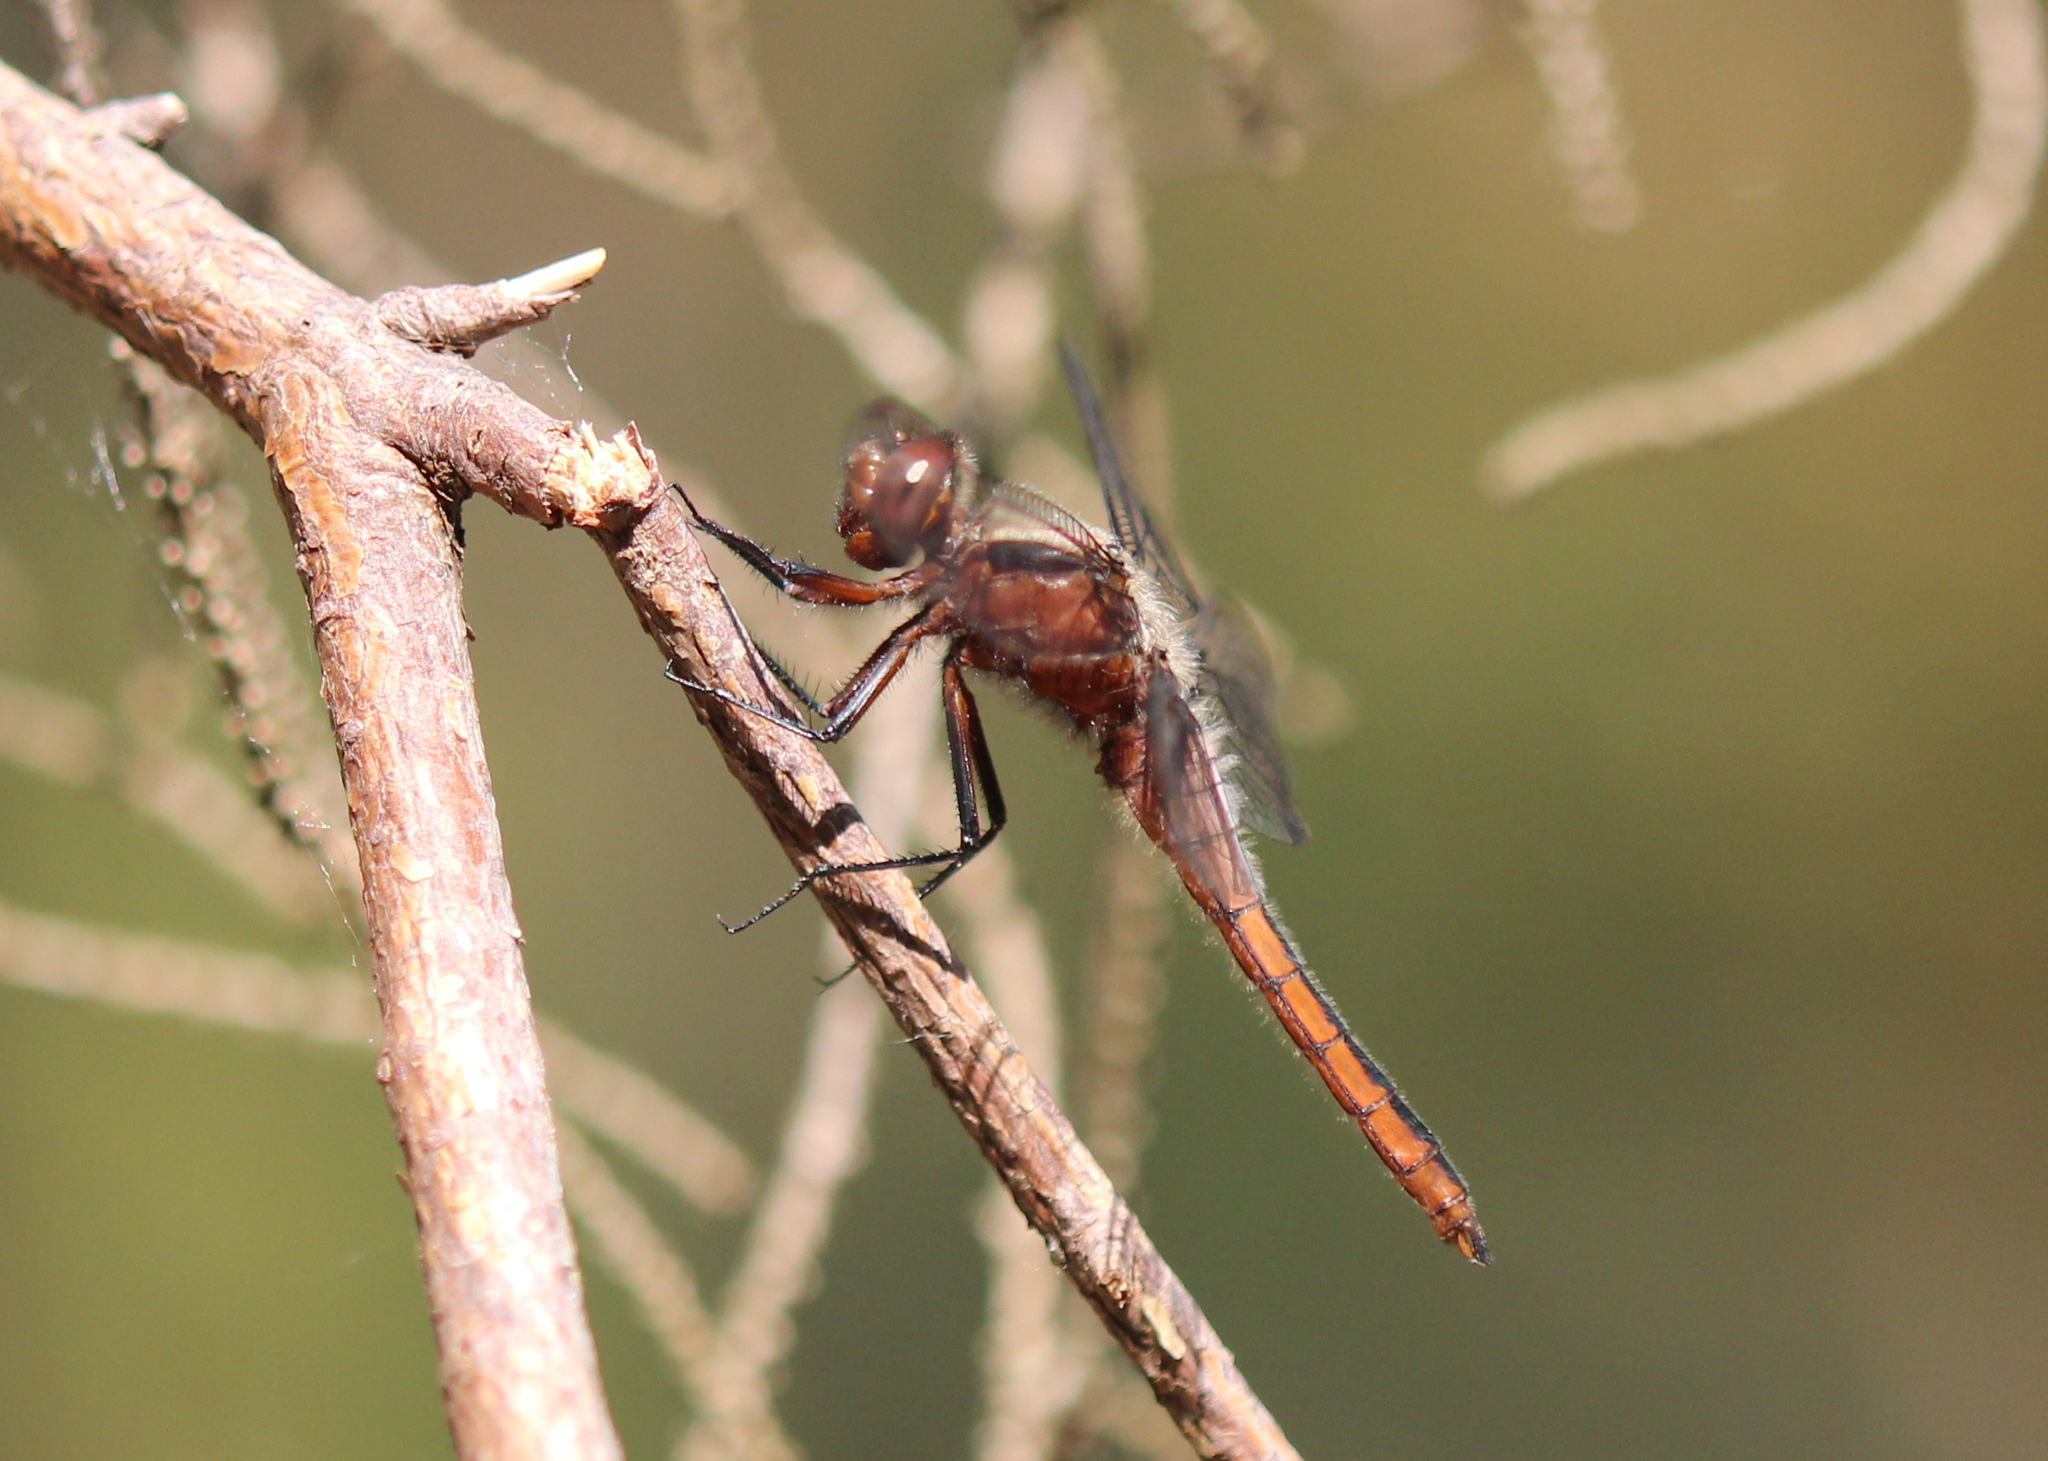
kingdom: Animalia
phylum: Arthropoda
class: Insecta
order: Odonata
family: Libellulidae
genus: Ladona
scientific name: Ladona julia
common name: Chalk-fronted corporal
